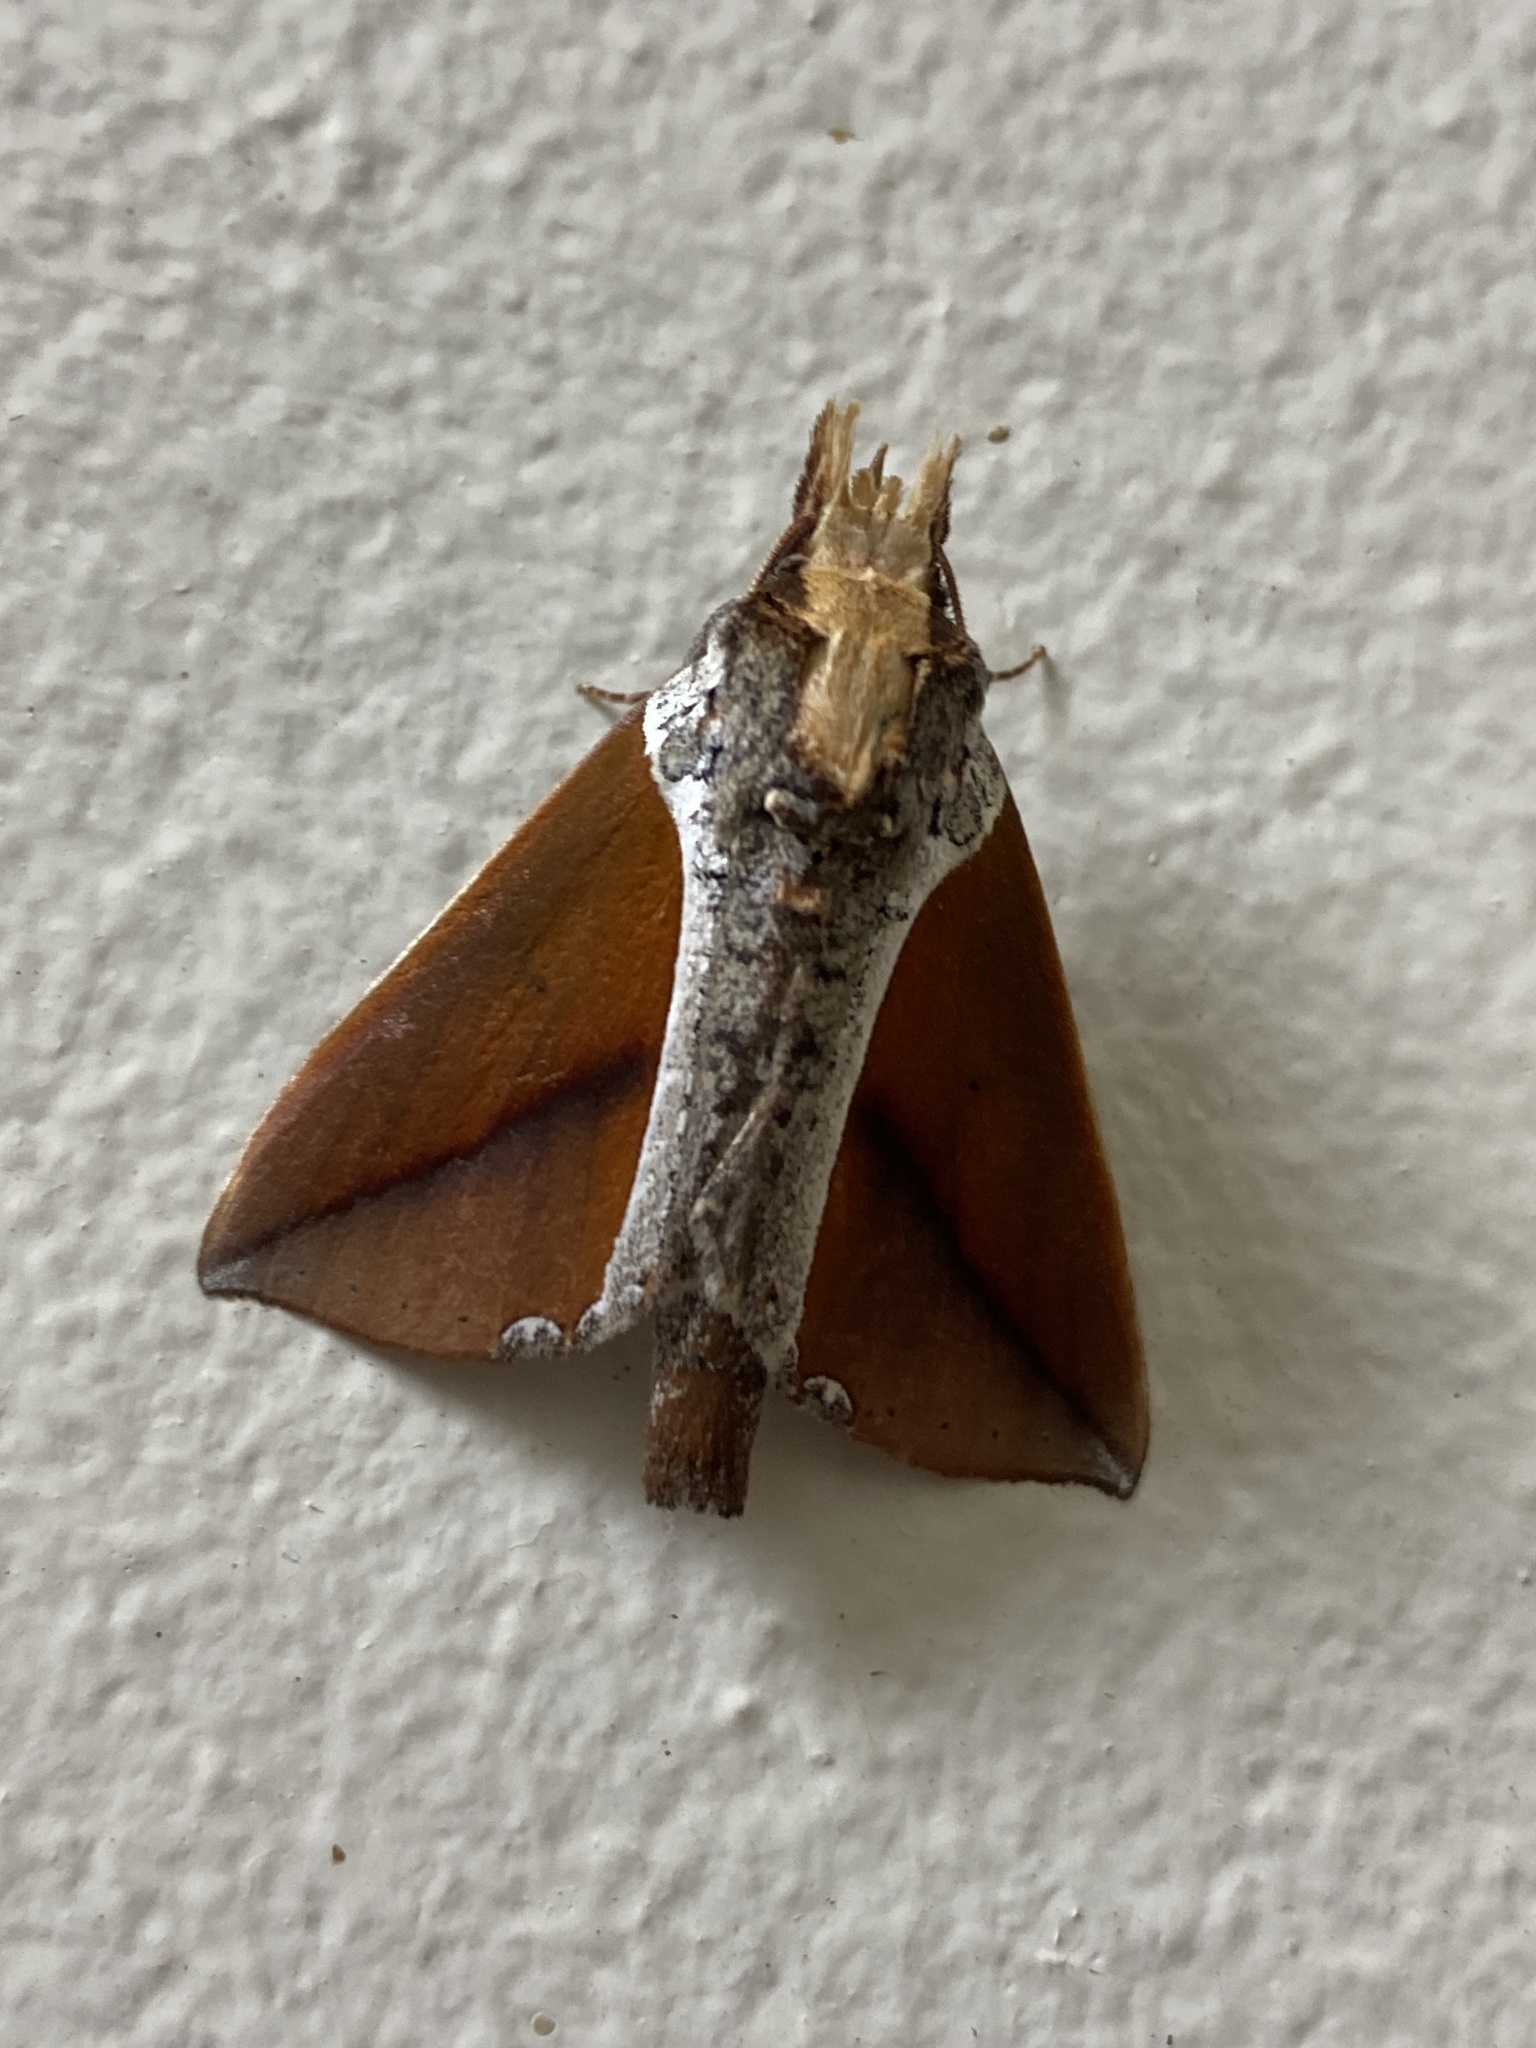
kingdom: Animalia
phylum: Arthropoda
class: Insecta
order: Lepidoptera
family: Notodontidae
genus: Strophocerus
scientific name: Strophocerus thermesia
